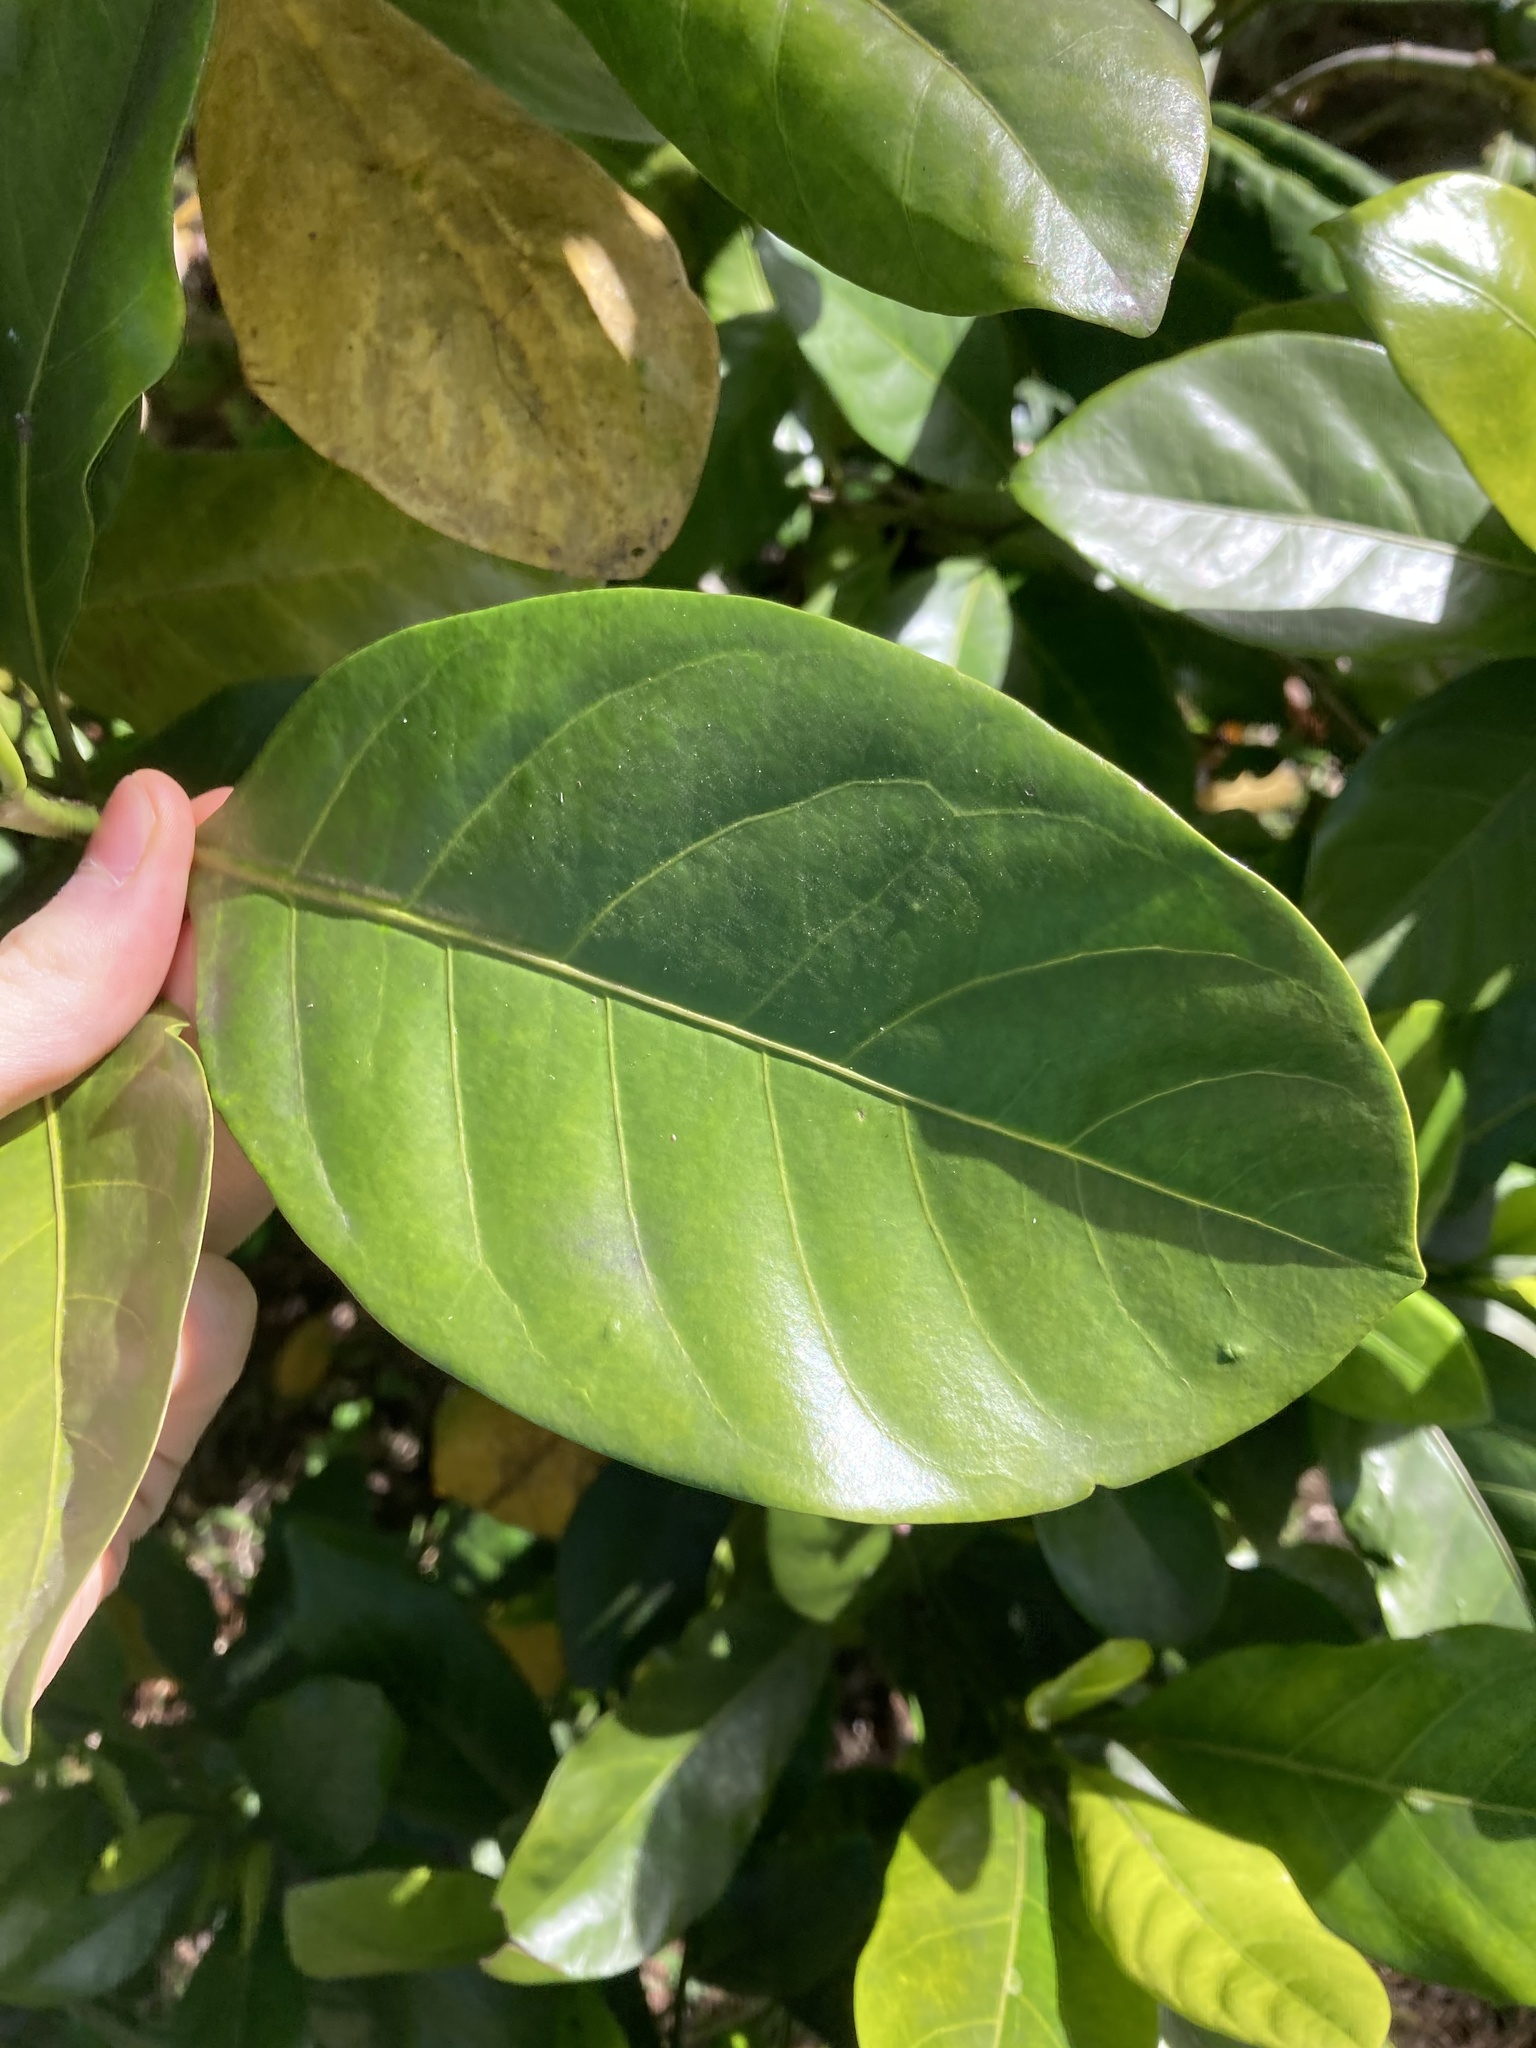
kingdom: Plantae
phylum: Tracheophyta
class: Magnoliopsida
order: Gentianales
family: Rubiaceae
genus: Atractocarpus
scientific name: Atractocarpus fitzalanii
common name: Randia
